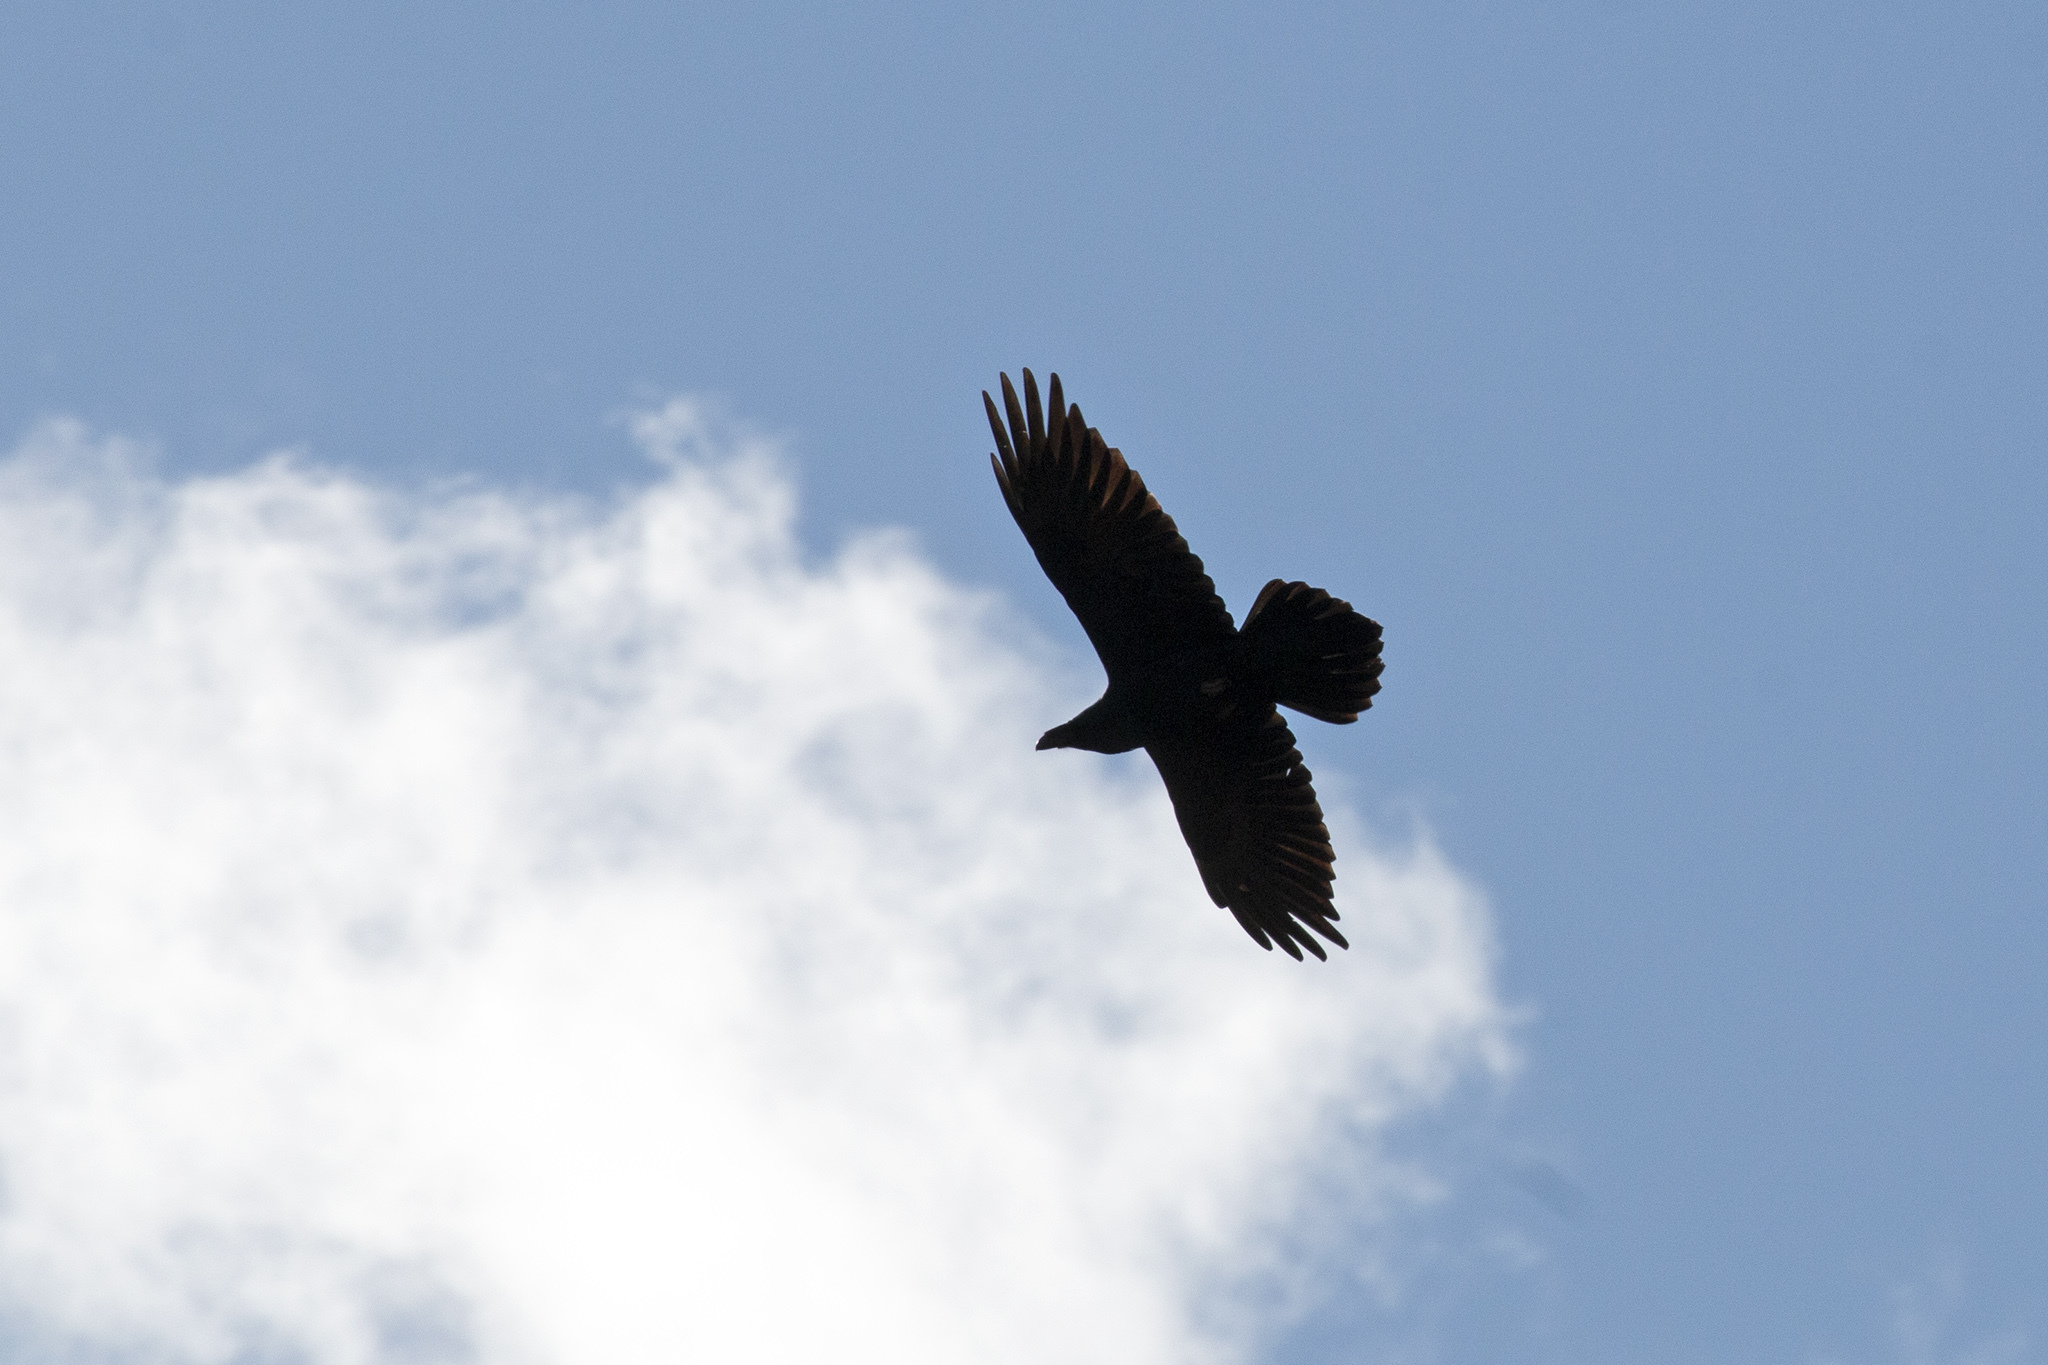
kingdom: Animalia
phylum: Chordata
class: Aves
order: Passeriformes
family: Corvidae
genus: Corvus
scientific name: Corvus corax
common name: Common raven
